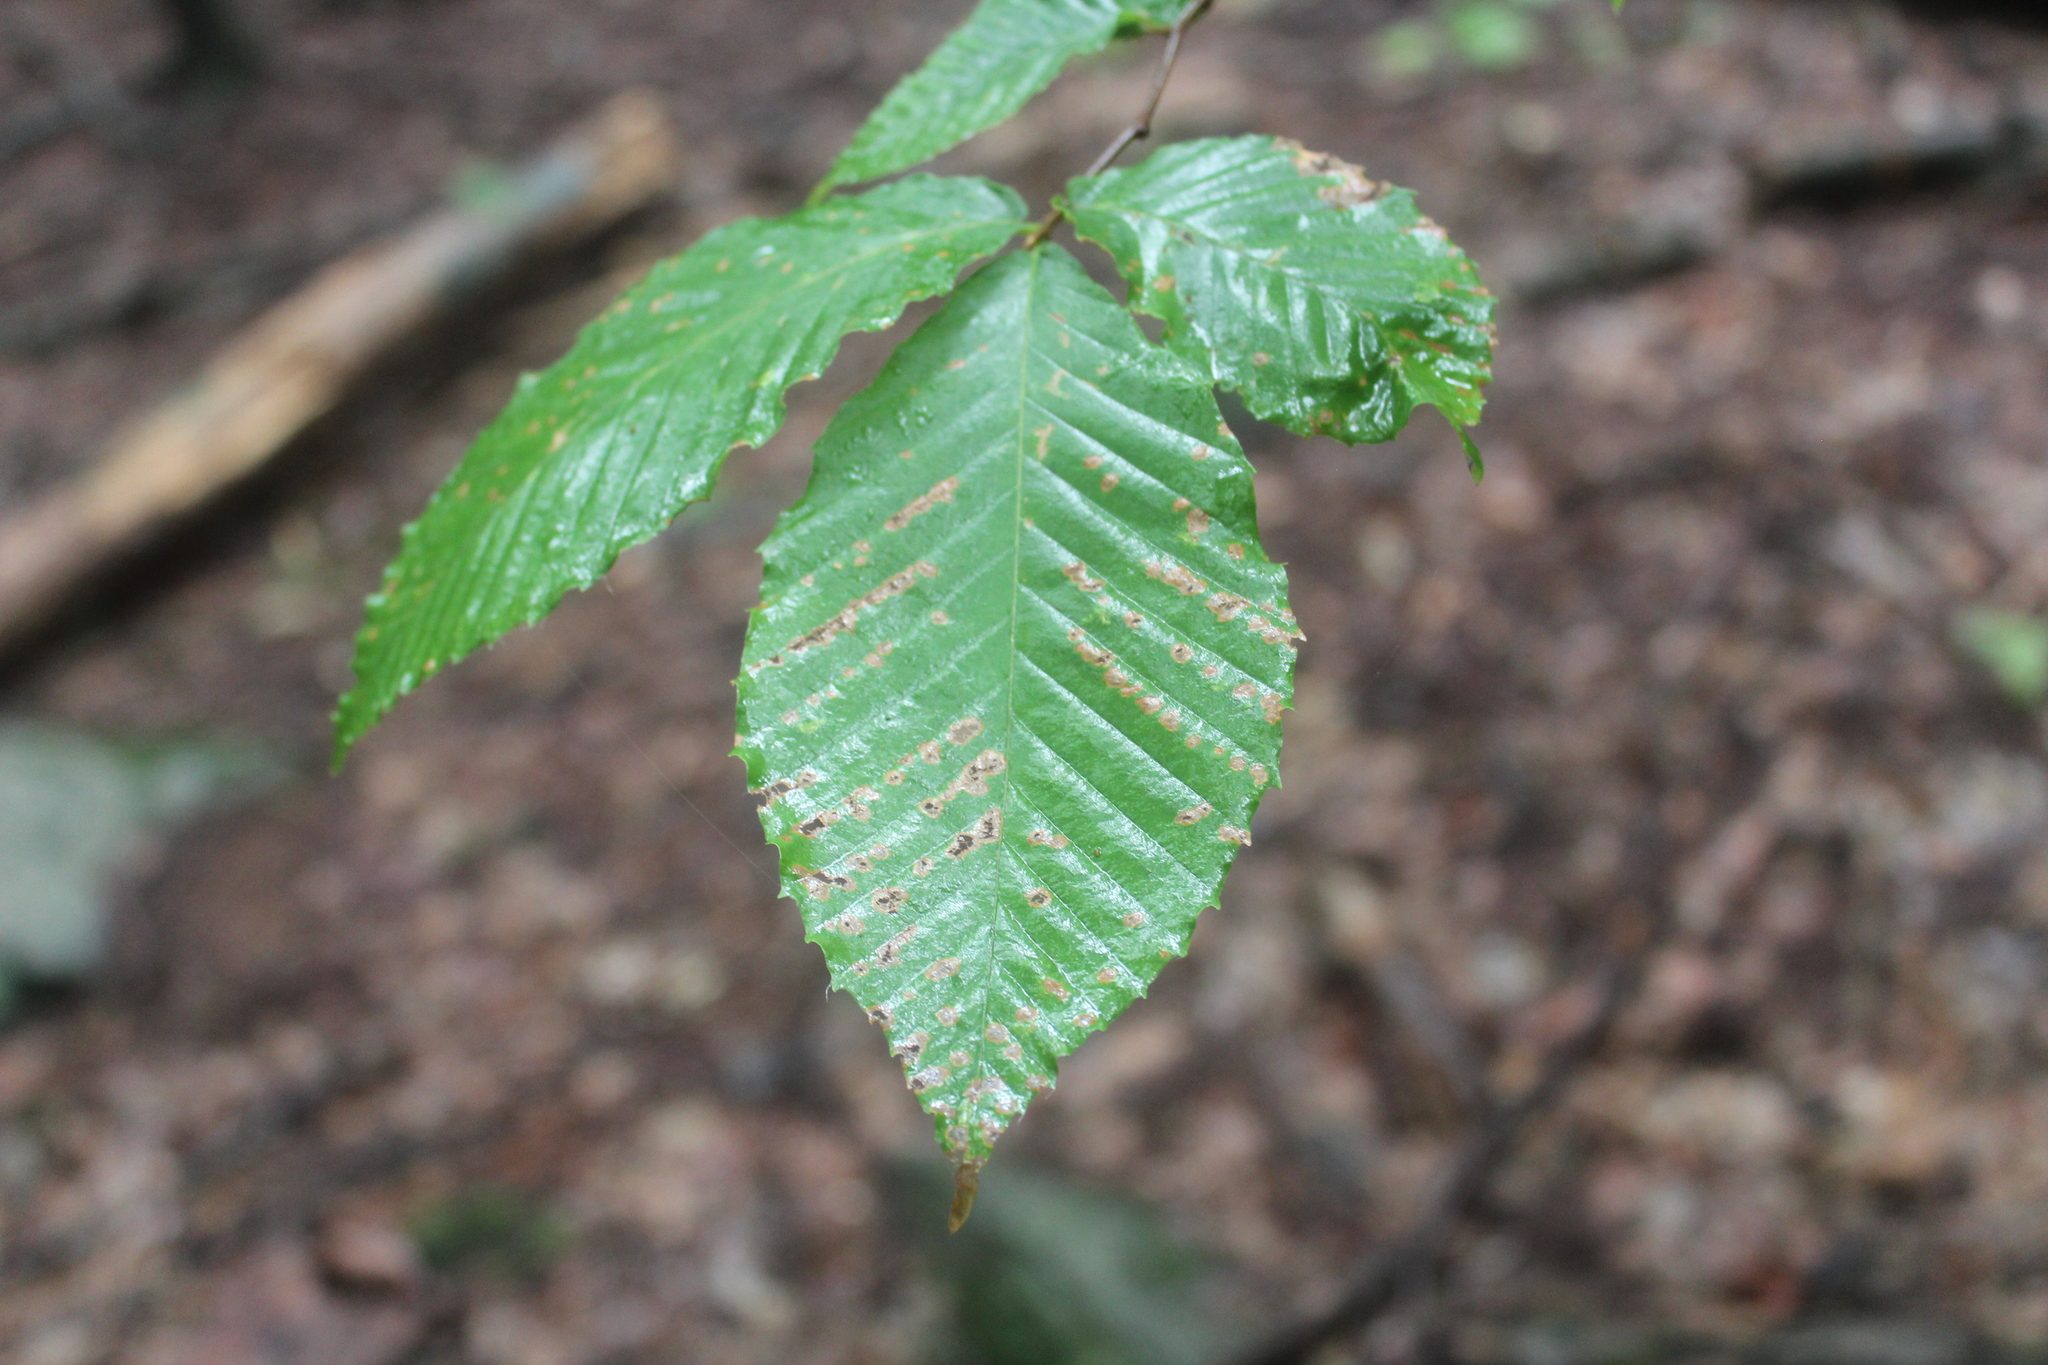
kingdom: Plantae
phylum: Tracheophyta
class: Magnoliopsida
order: Fagales
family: Fagaceae
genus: Fagus
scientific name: Fagus grandifolia
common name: American beech
